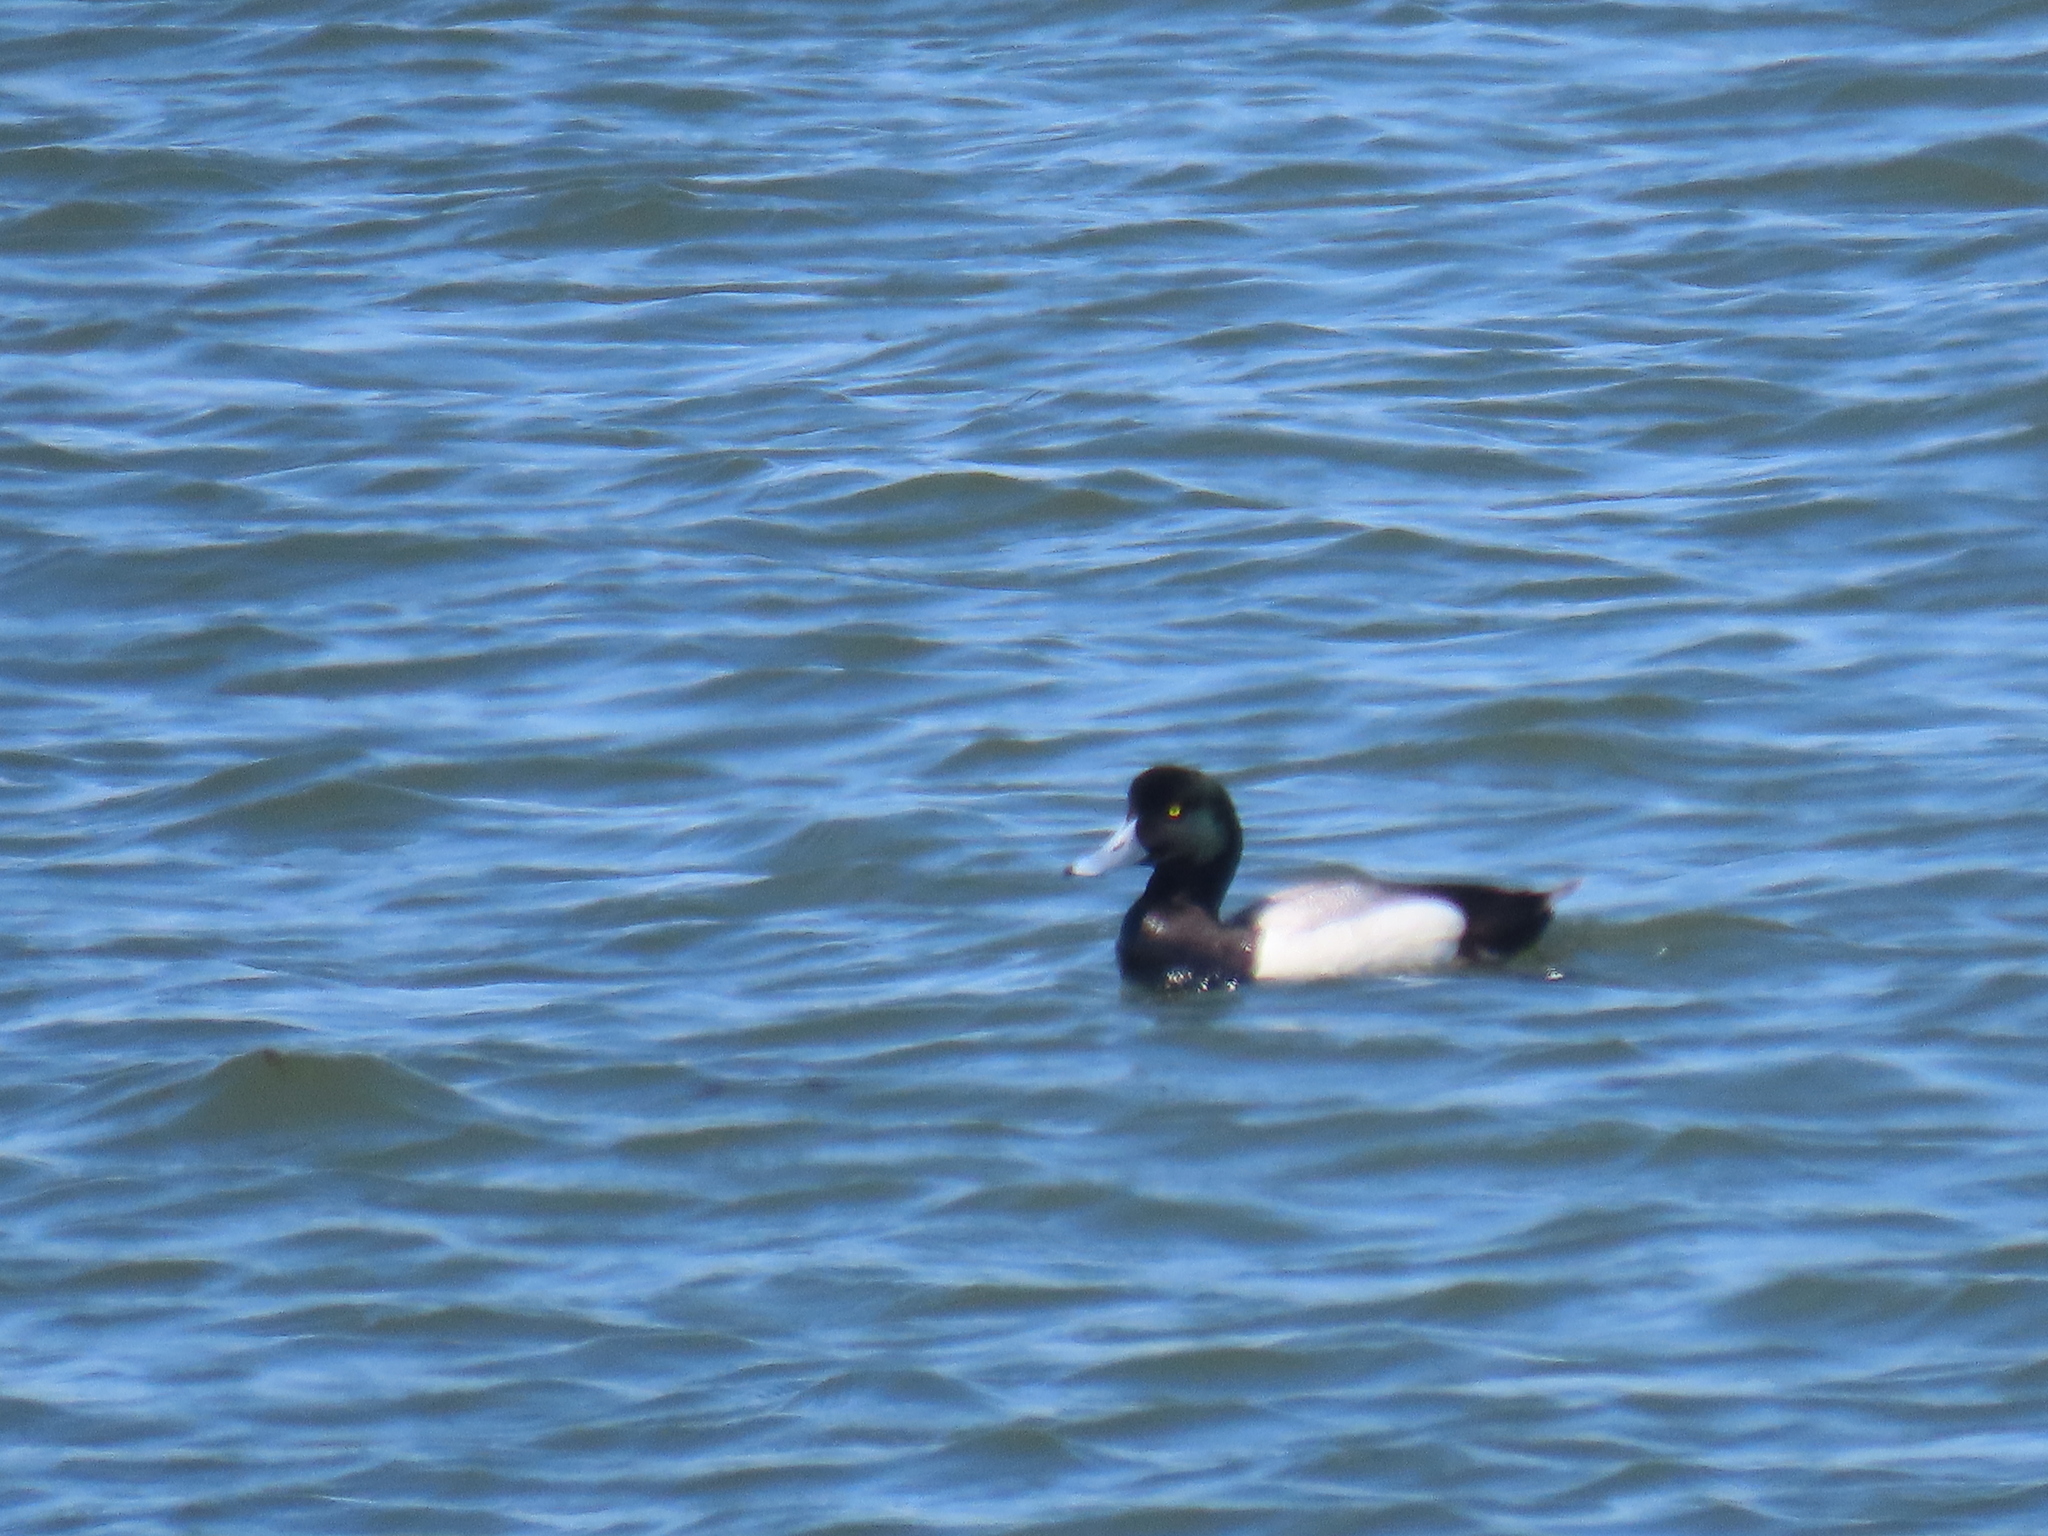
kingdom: Animalia
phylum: Chordata
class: Aves
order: Anseriformes
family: Anatidae
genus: Aythya
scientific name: Aythya marila
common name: Greater scaup
